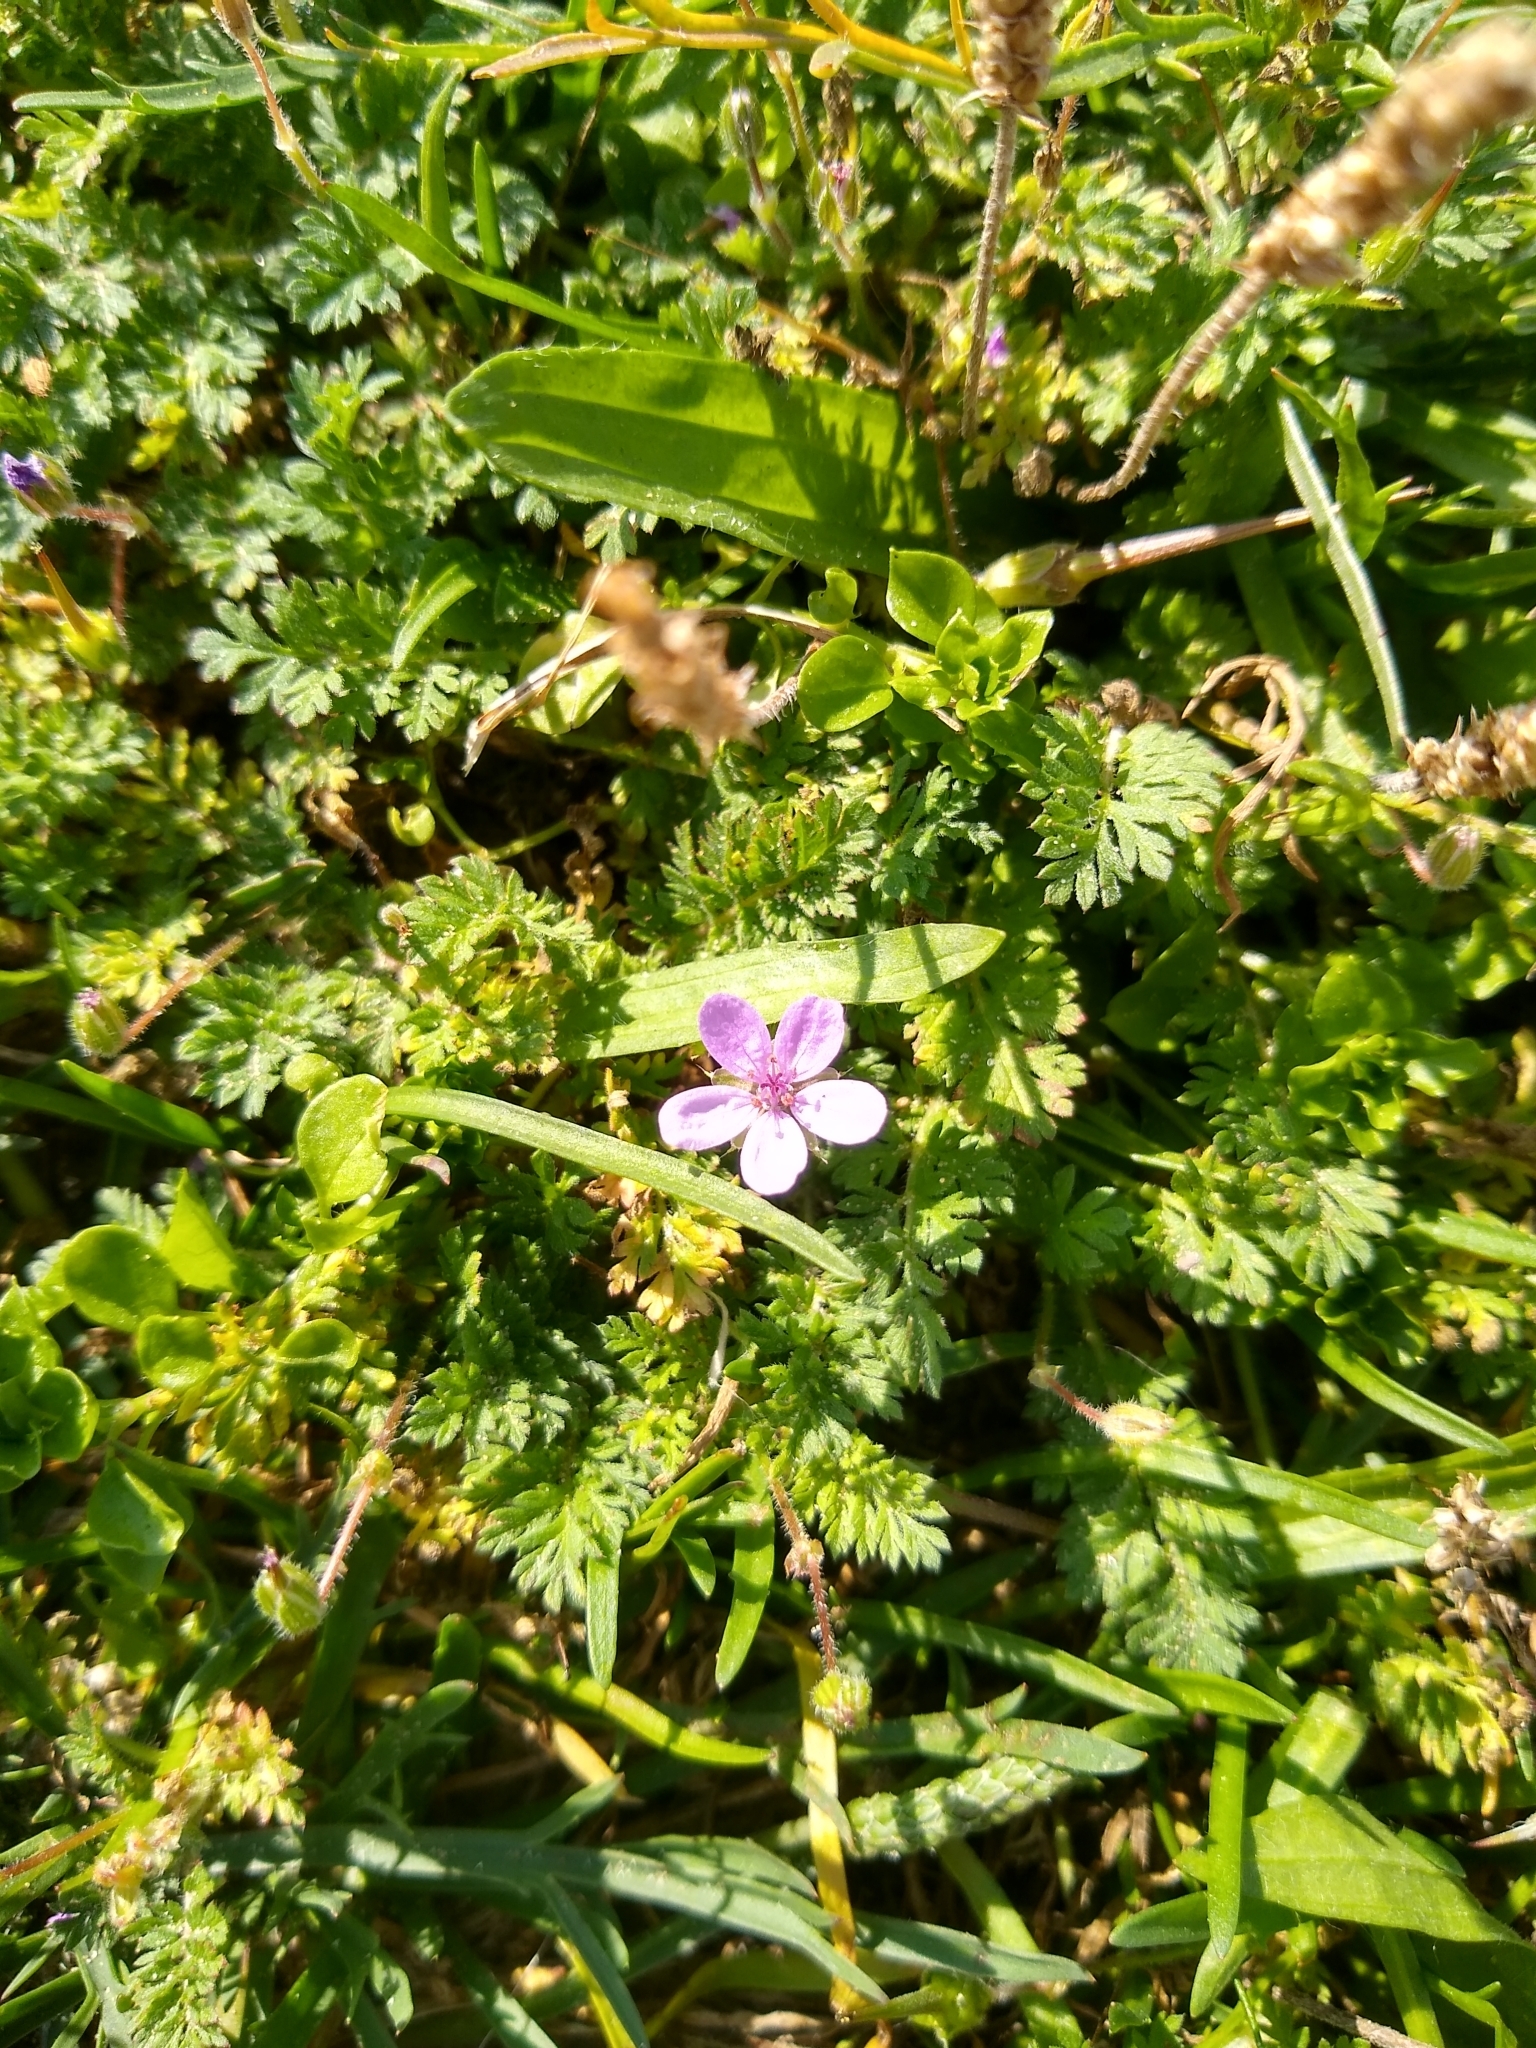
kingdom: Plantae
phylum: Tracheophyta
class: Magnoliopsida
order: Geraniales
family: Geraniaceae
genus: Erodium
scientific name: Erodium cicutarium
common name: Common stork's-bill
